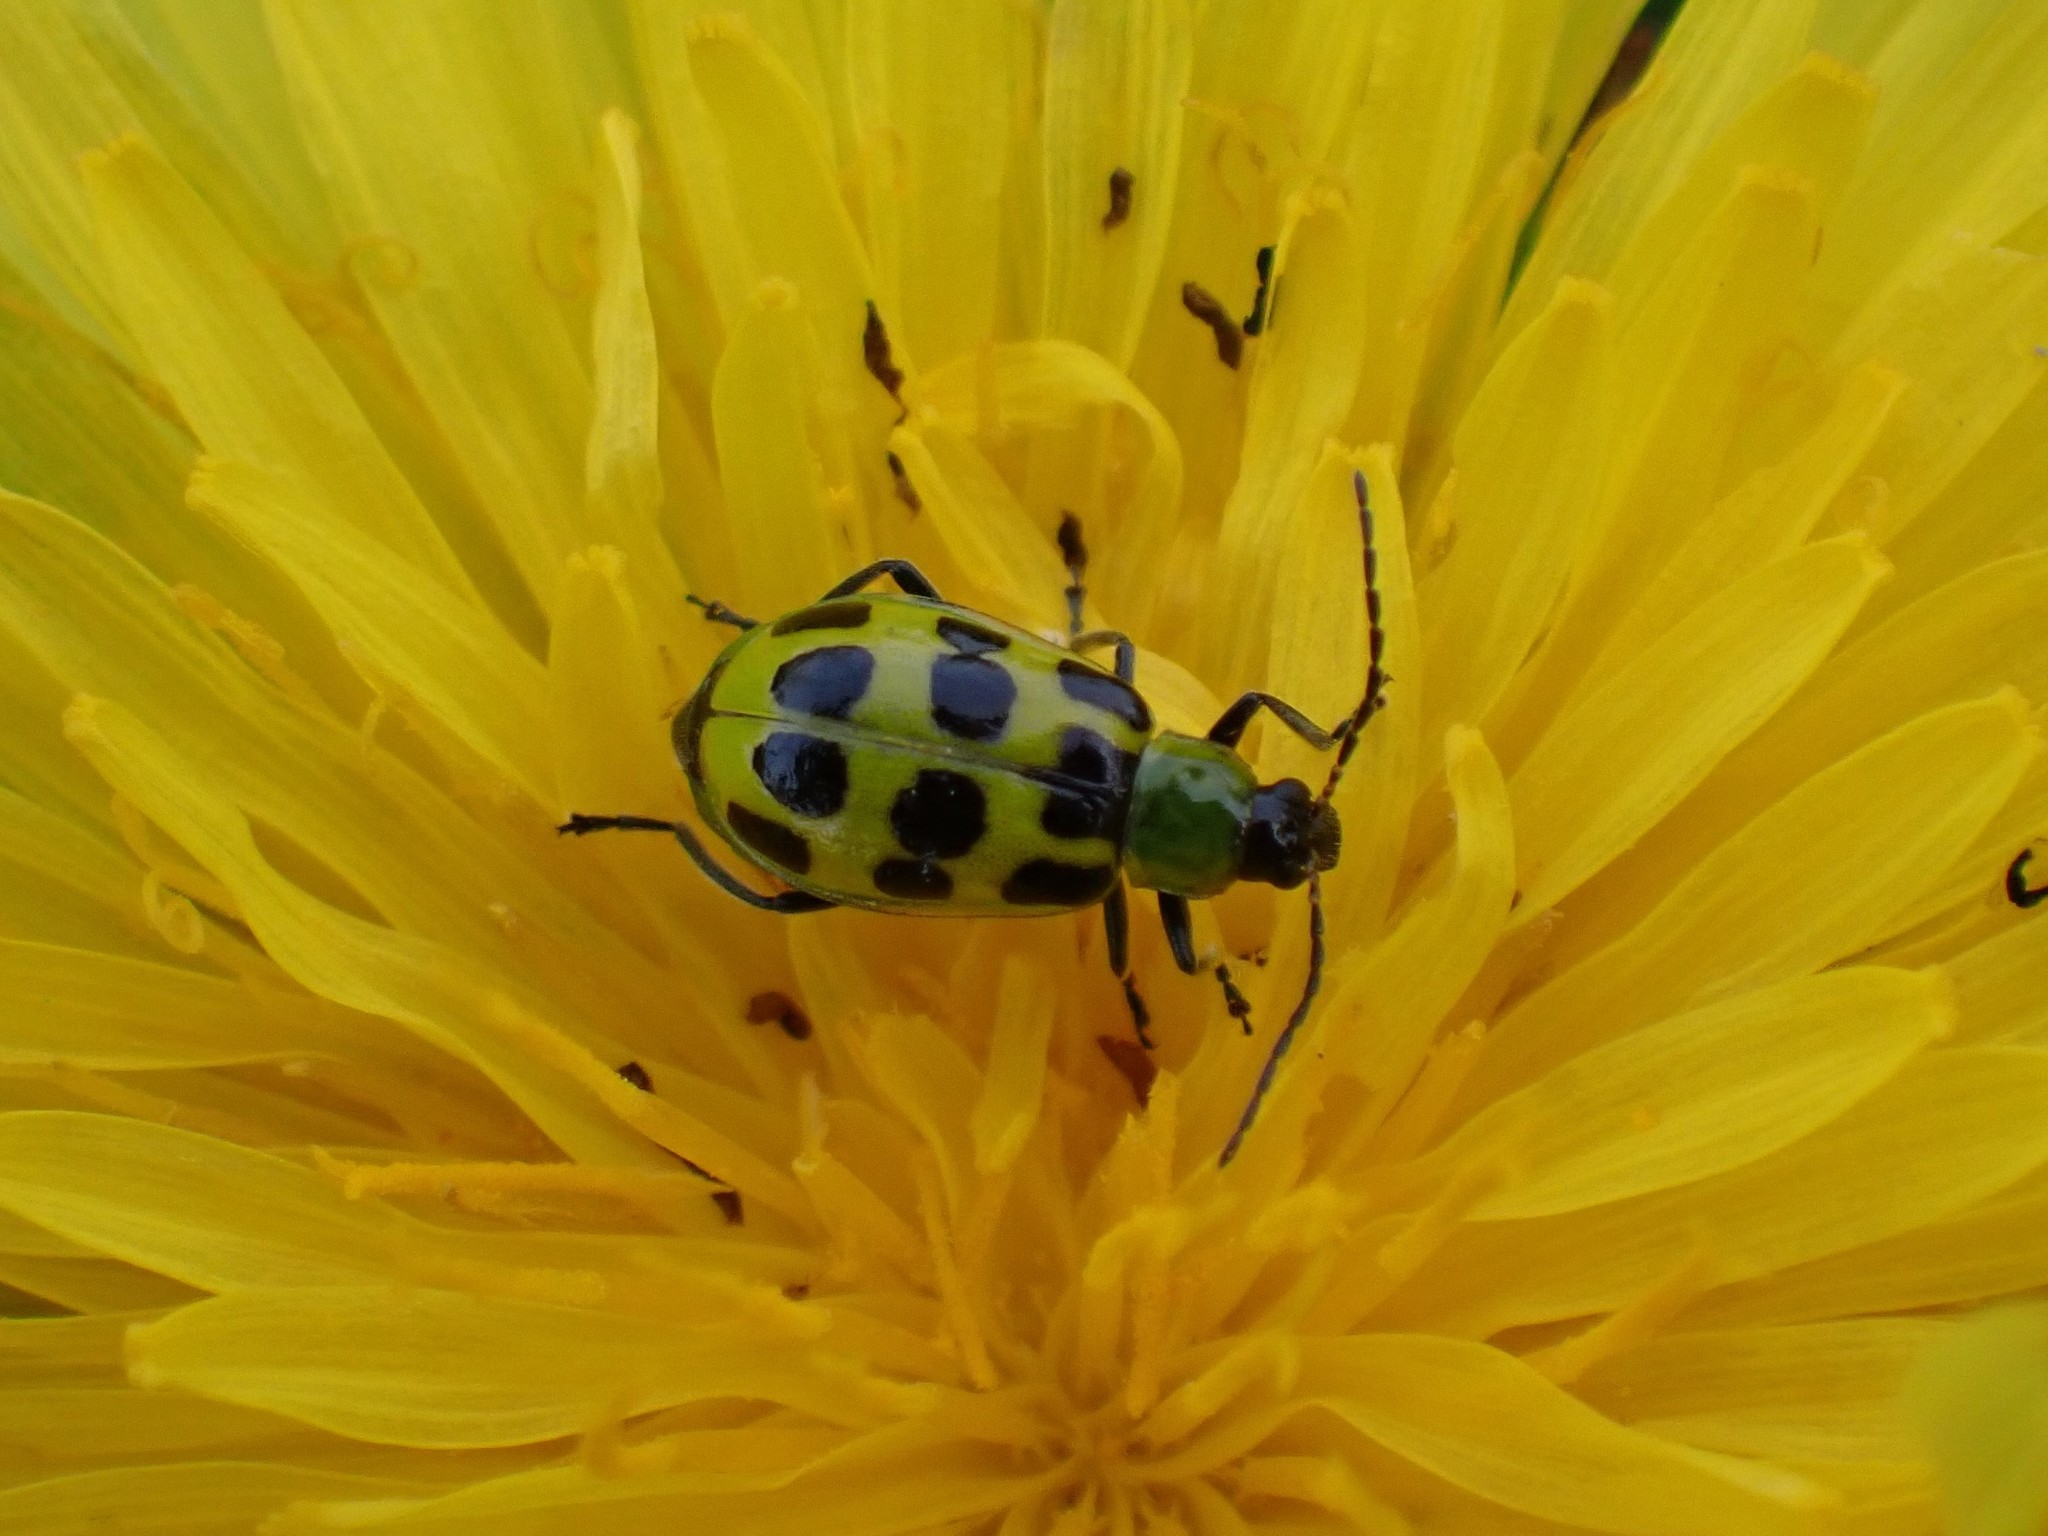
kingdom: Animalia
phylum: Arthropoda
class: Insecta
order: Coleoptera
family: Chrysomelidae
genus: Diabrotica
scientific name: Diabrotica undecimpunctata
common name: Spotted cucumber beetle
